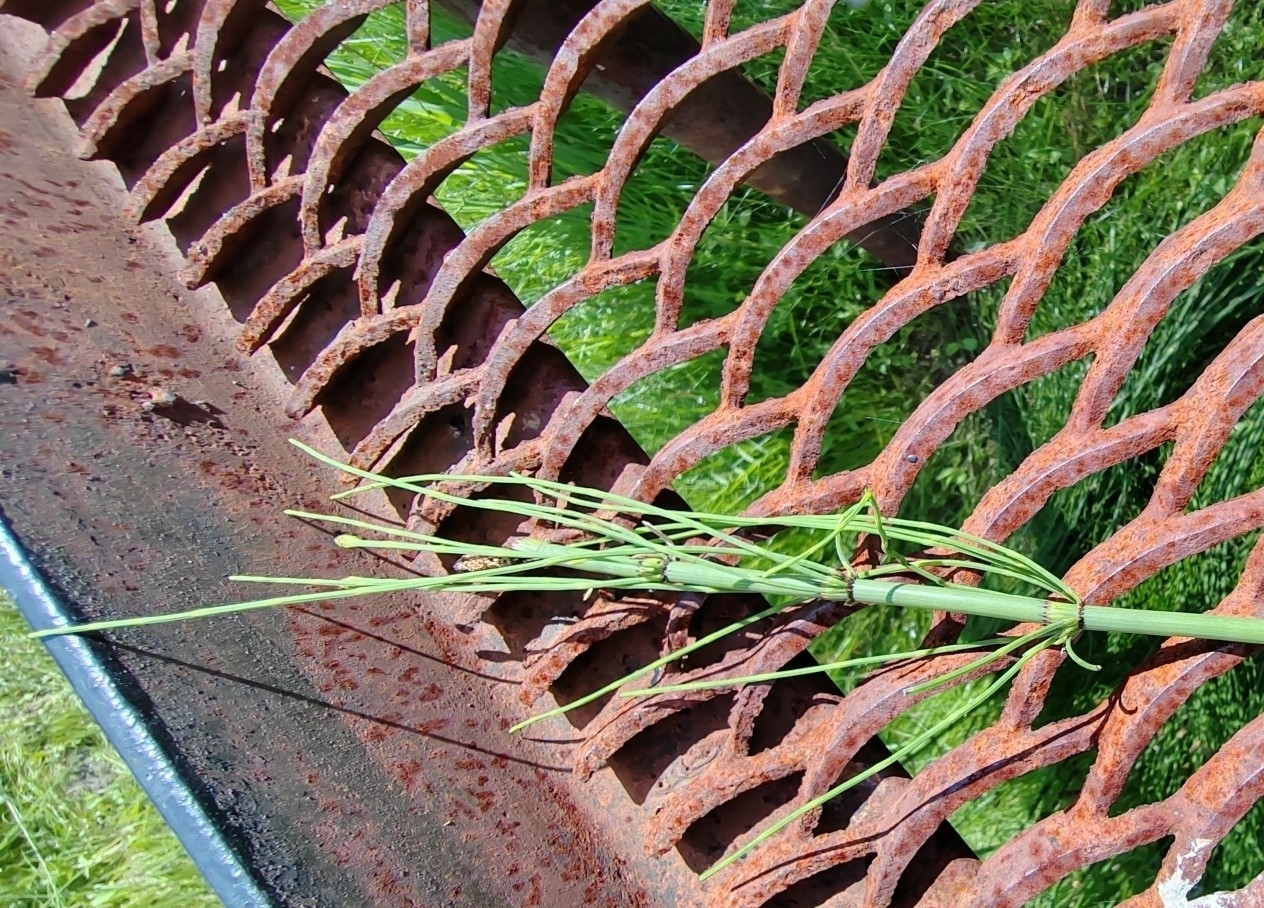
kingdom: Plantae
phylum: Tracheophyta
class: Polypodiopsida
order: Equisetales
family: Equisetaceae
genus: Equisetum
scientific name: Equisetum fluviatile
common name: Water horsetail
